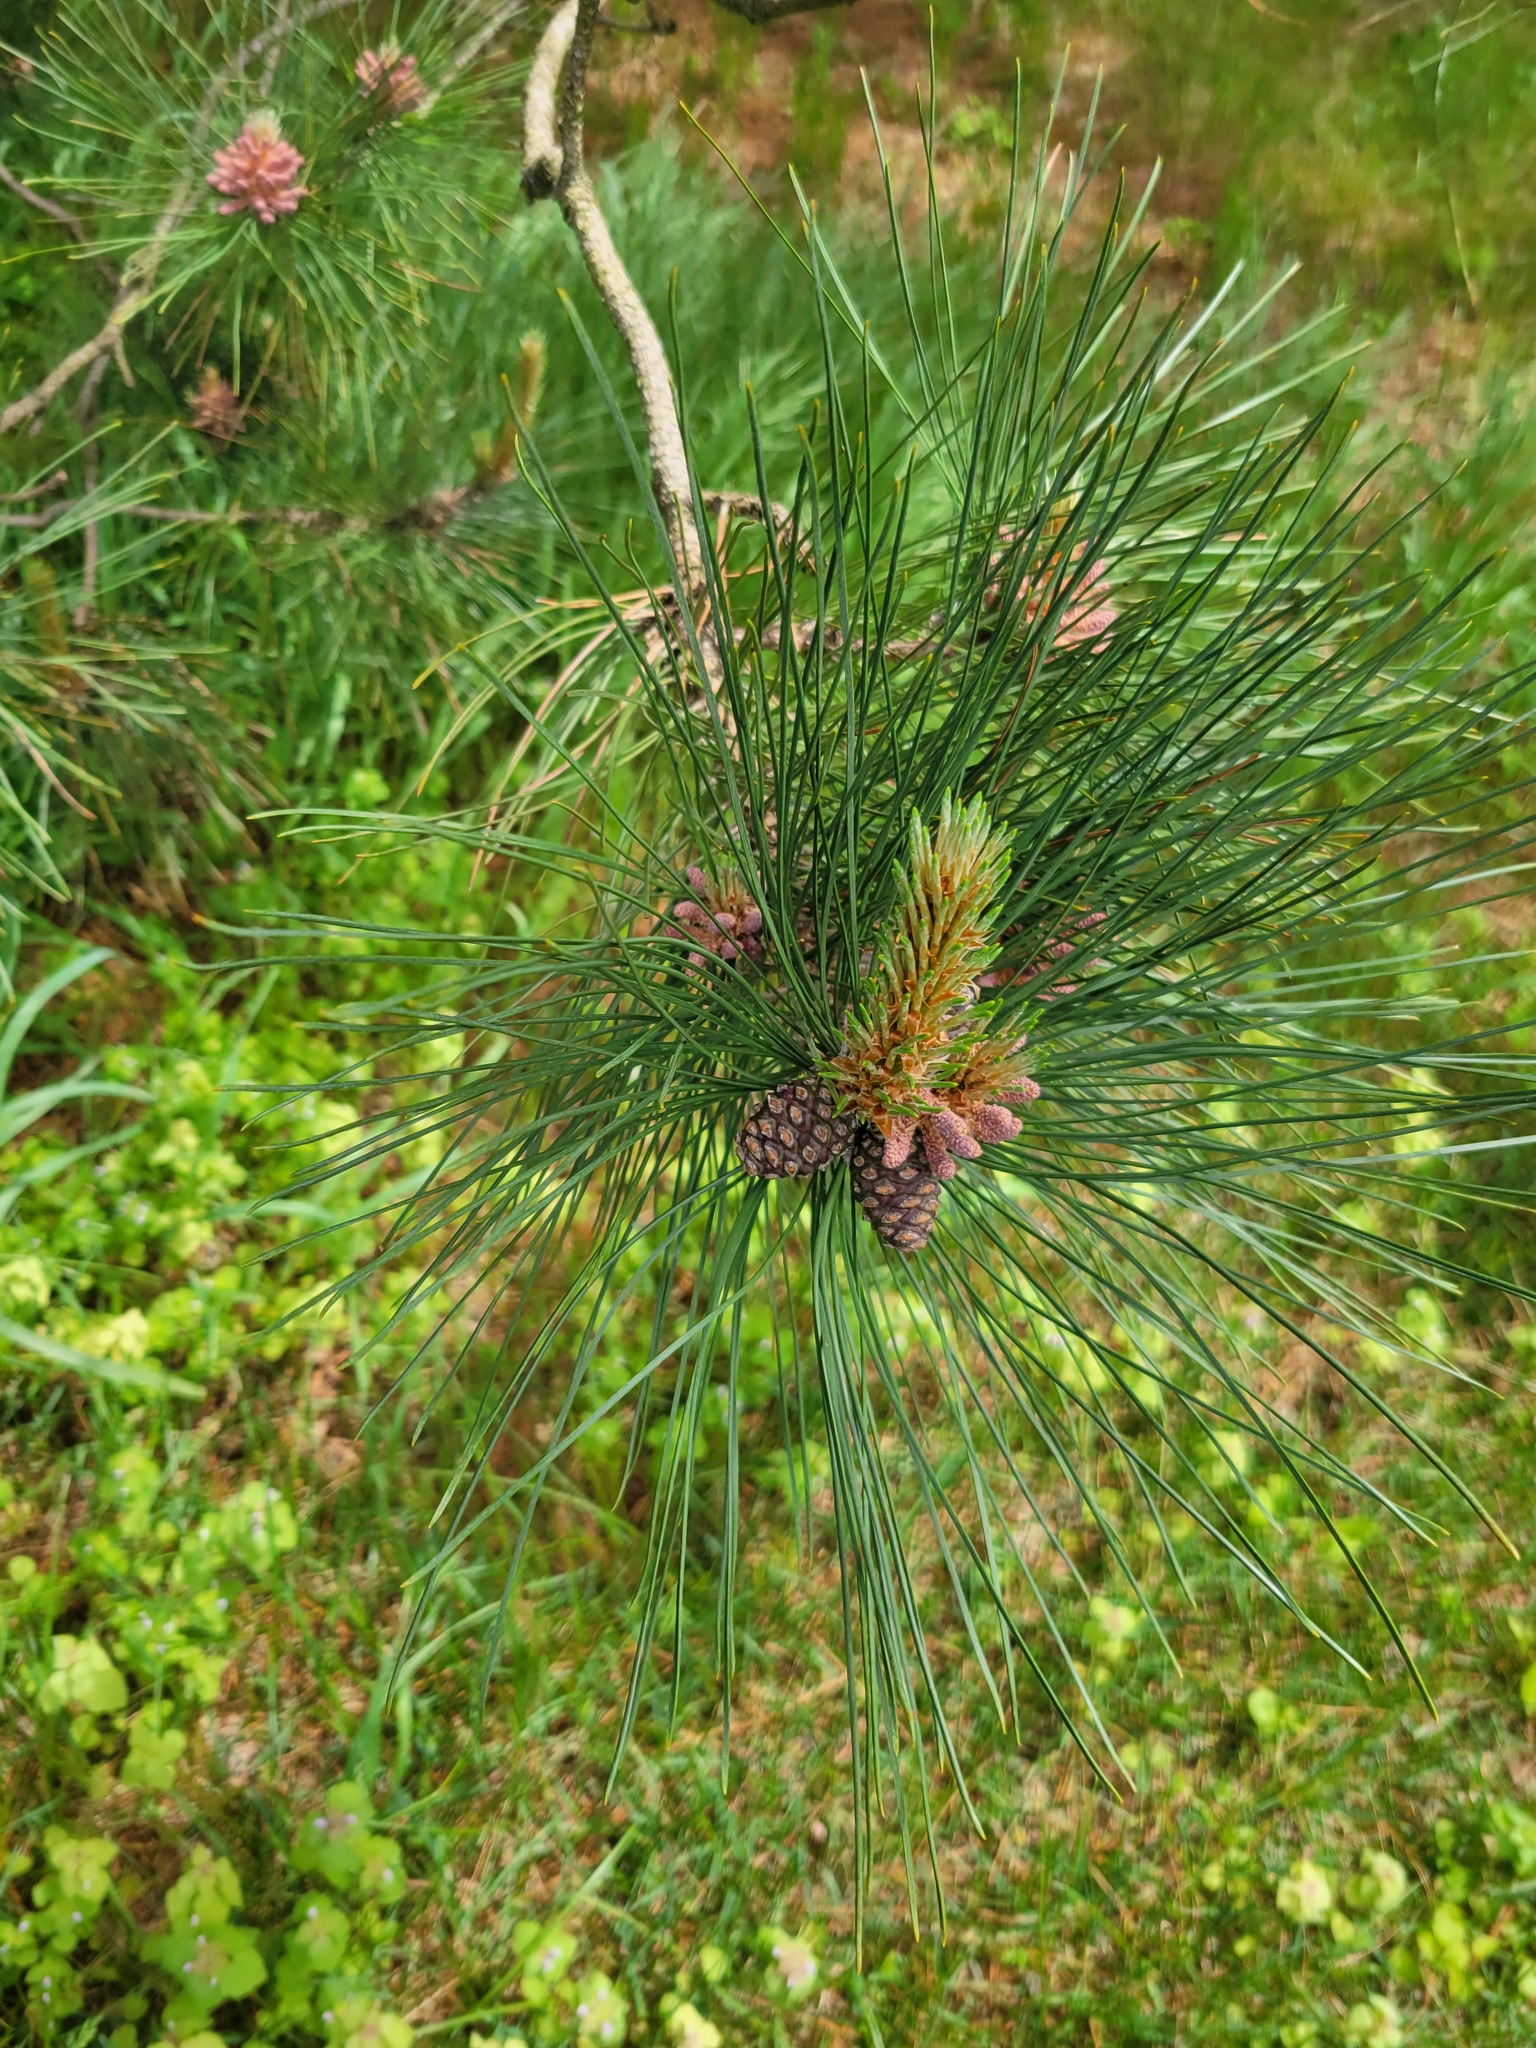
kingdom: Plantae
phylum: Tracheophyta
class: Pinopsida
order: Pinales
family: Pinaceae
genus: Pinus
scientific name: Pinus resinosa
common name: Norway pine
